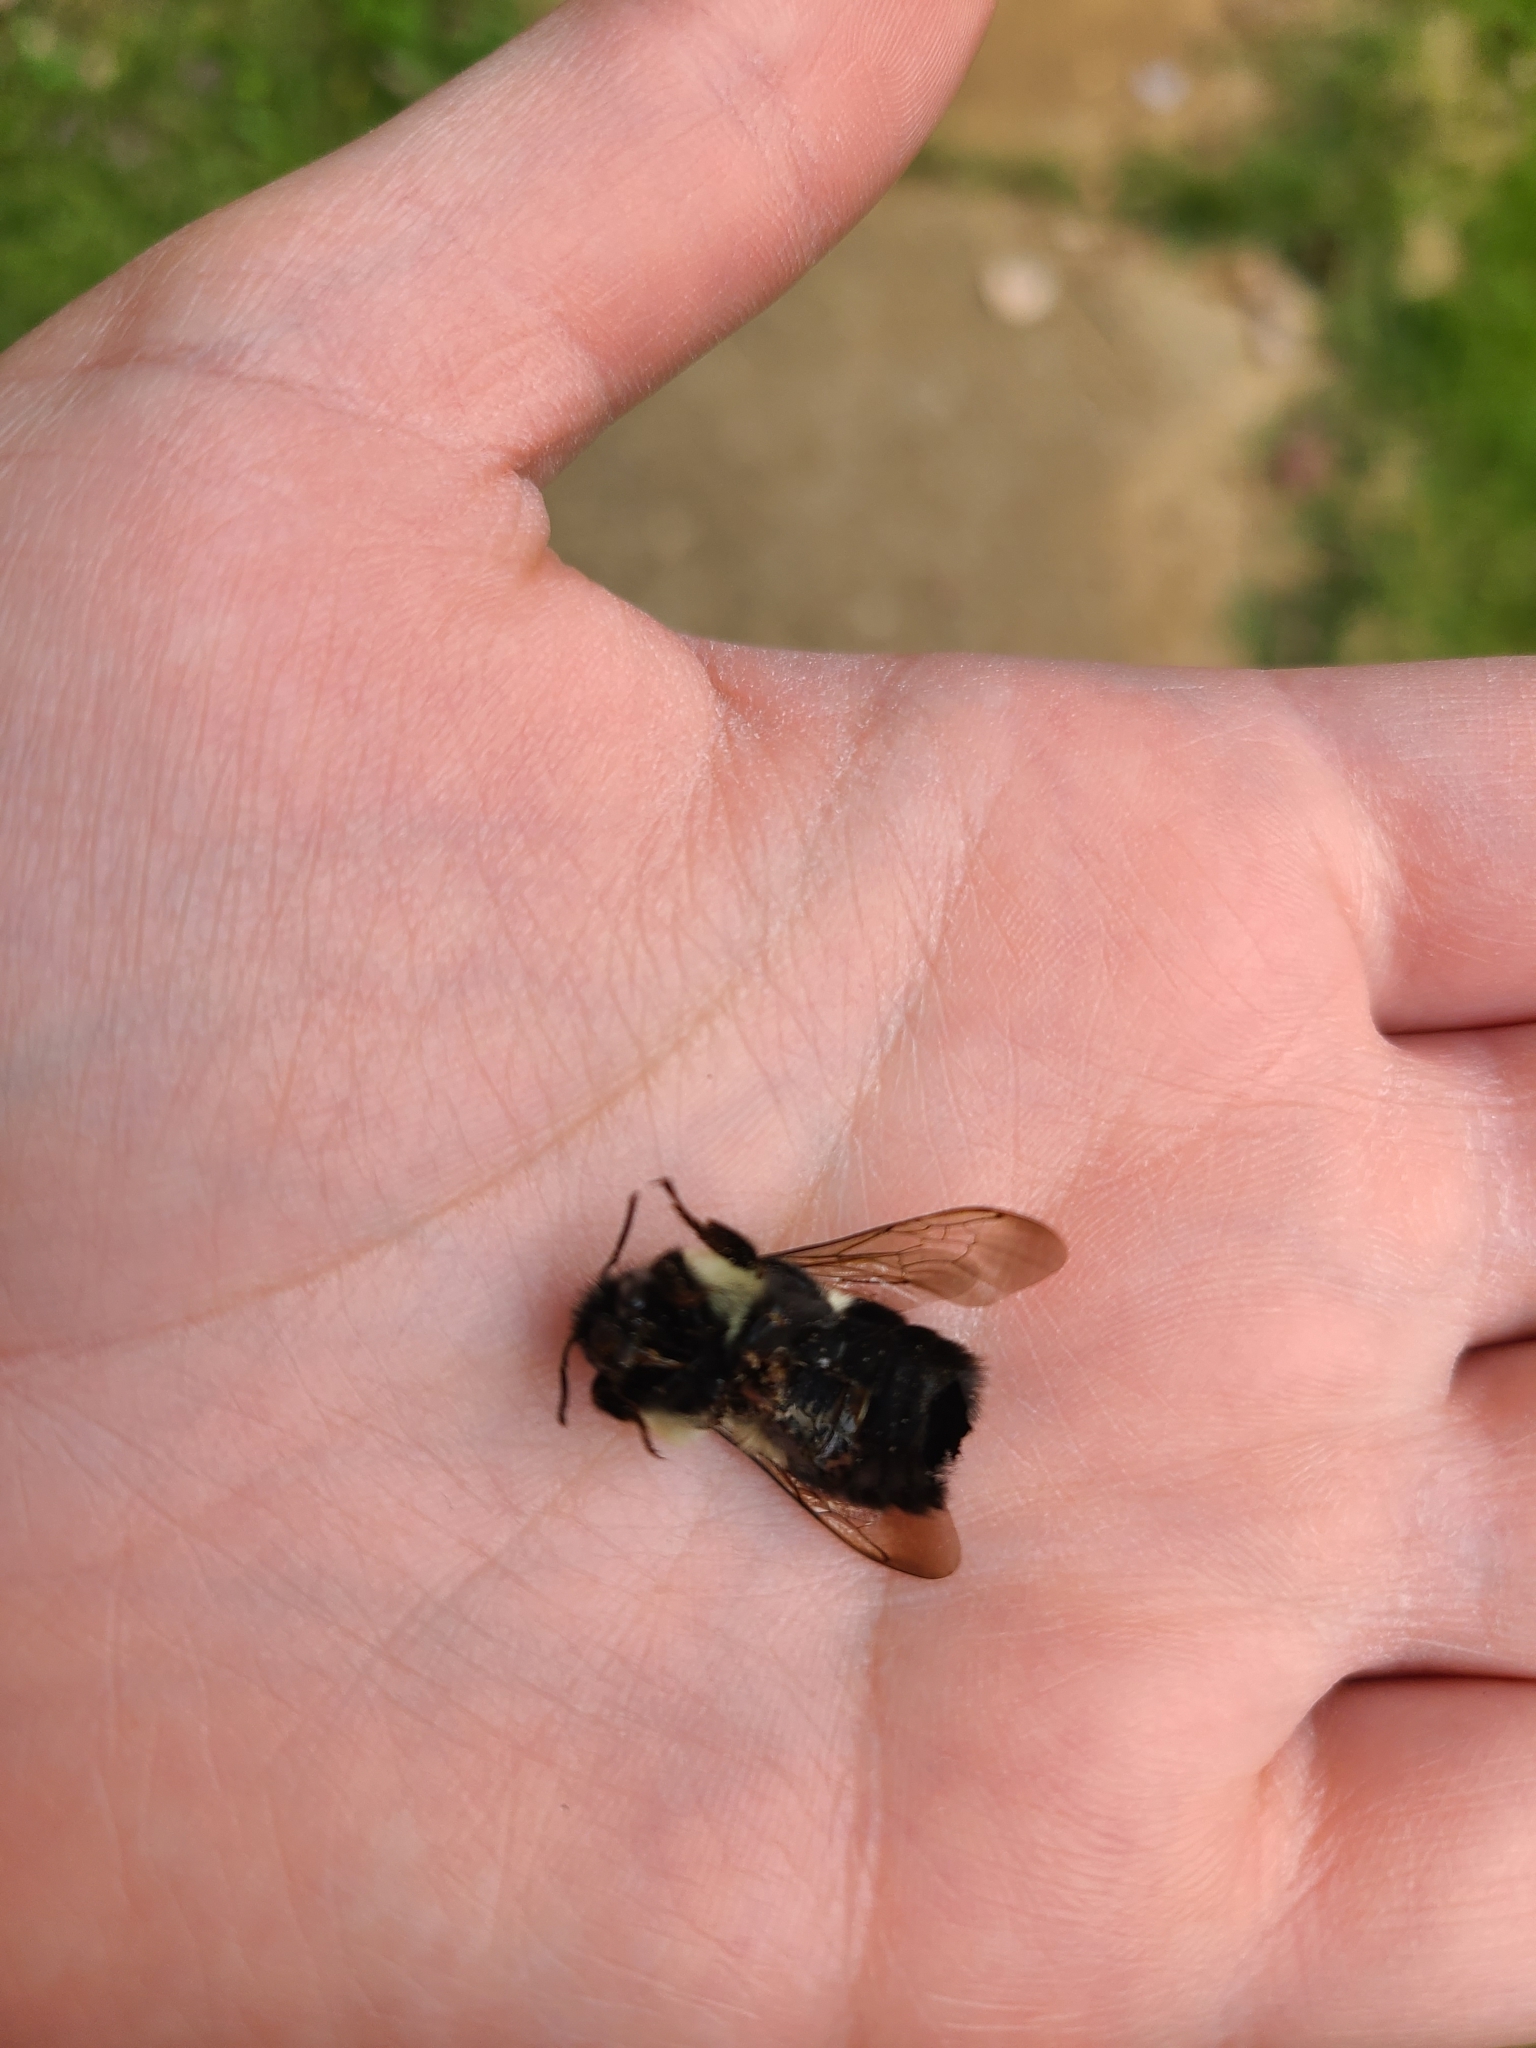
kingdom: Animalia
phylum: Arthropoda
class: Insecta
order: Hymenoptera
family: Apidae
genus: Bombus
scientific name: Bombus impatiens
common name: Common eastern bumble bee
